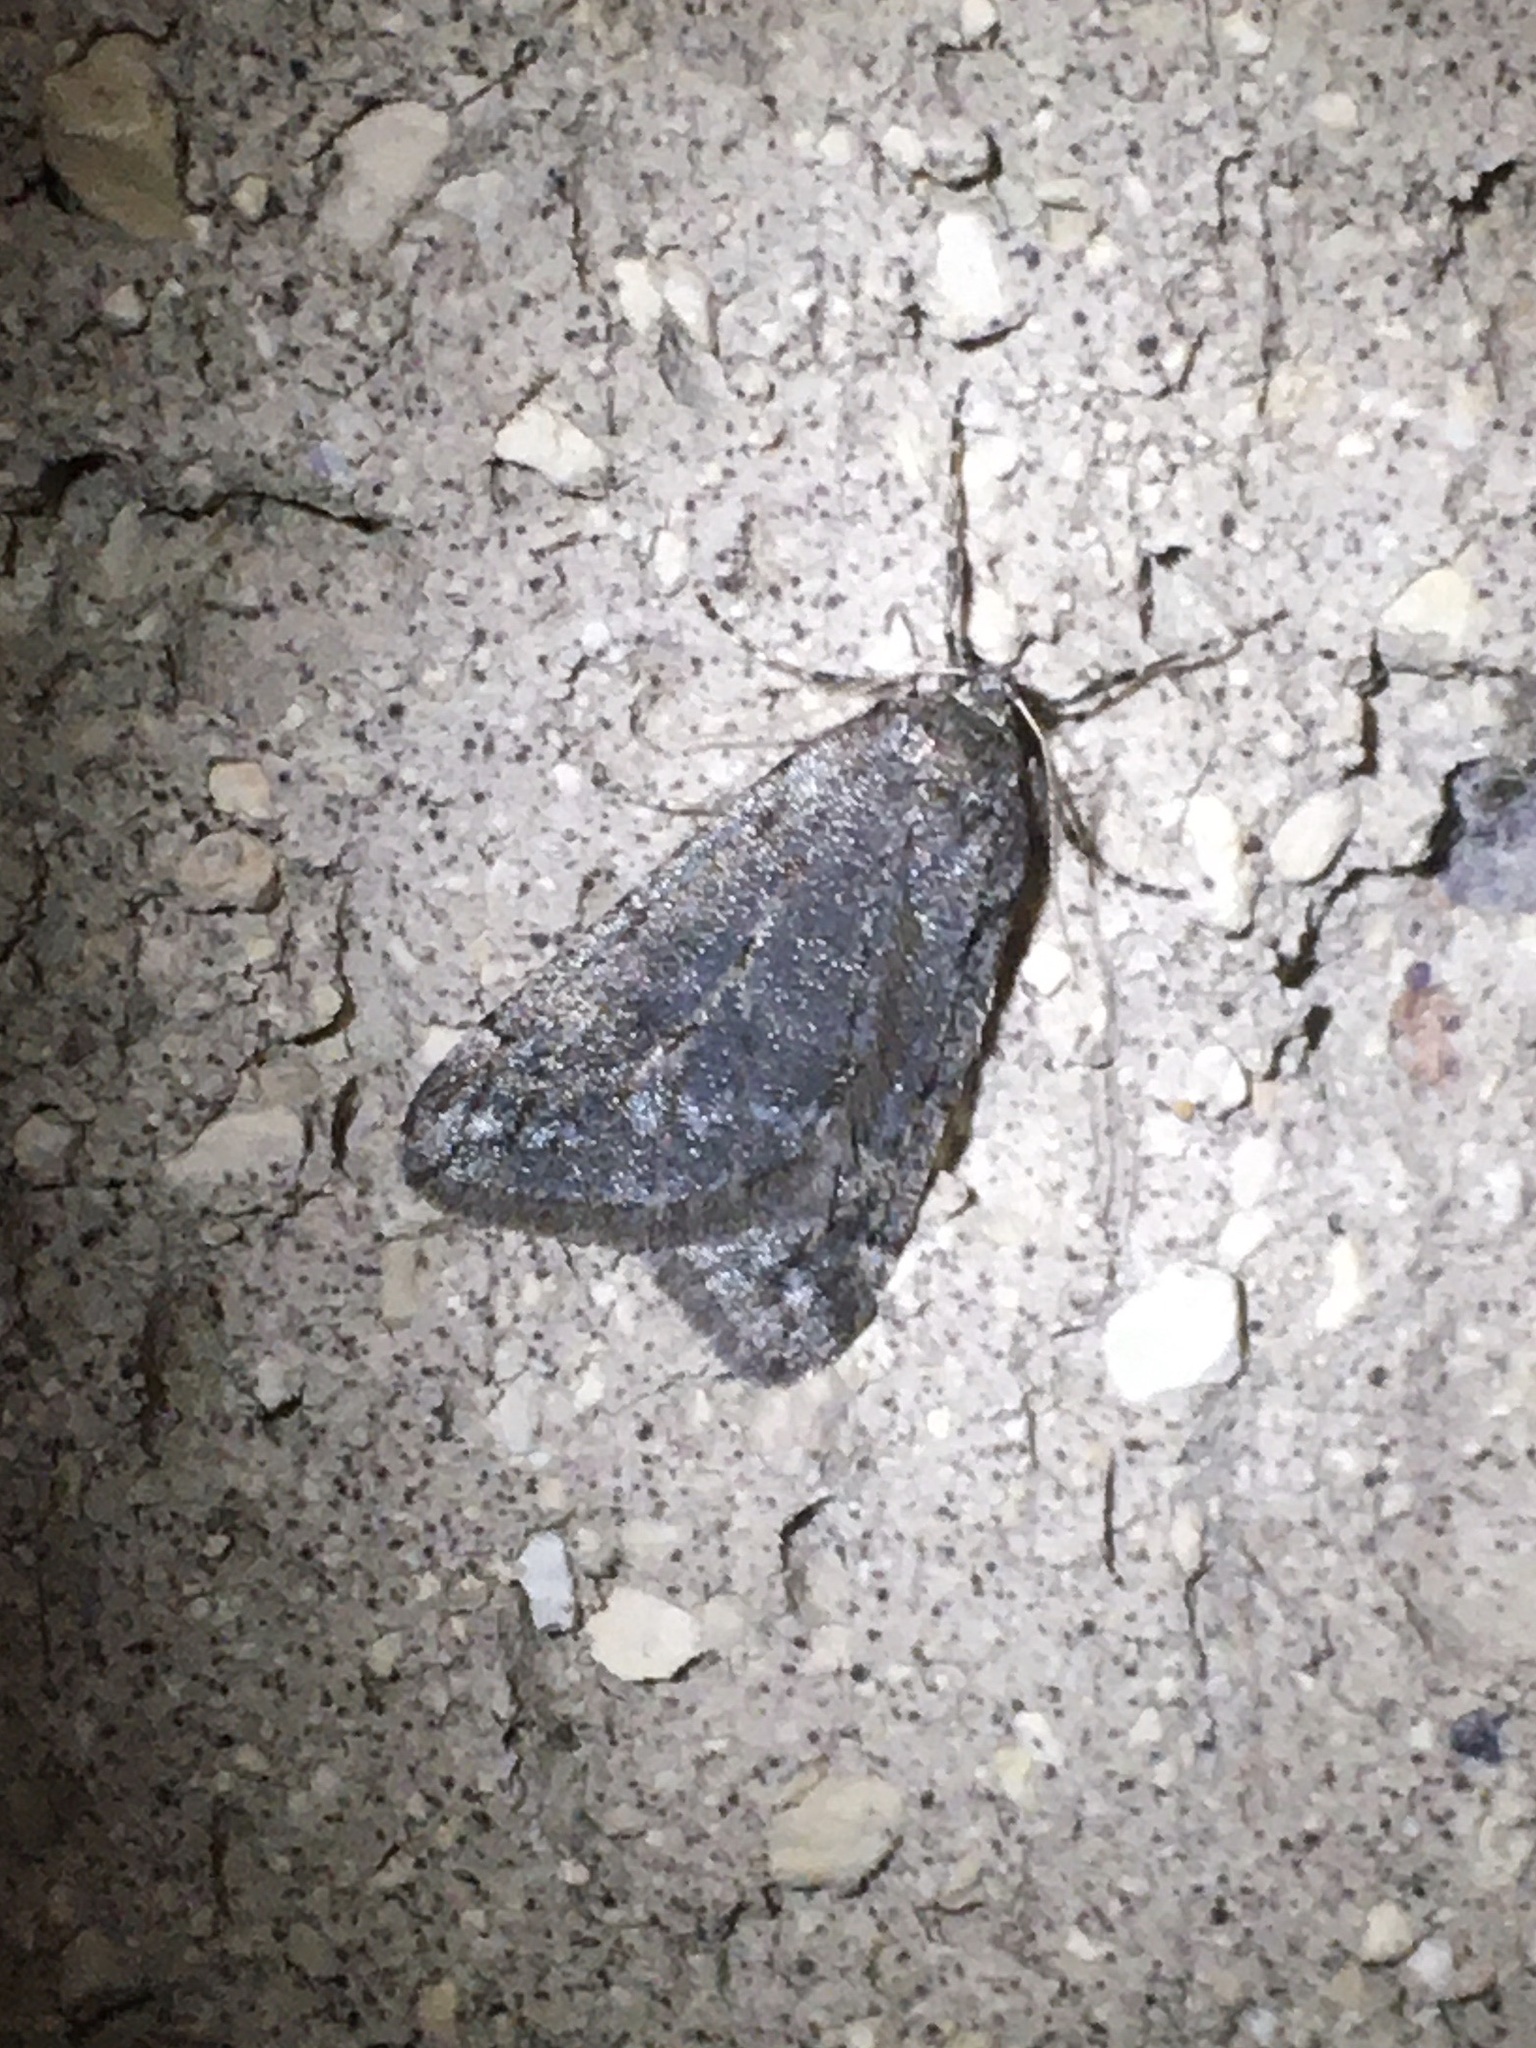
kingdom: Animalia
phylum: Arthropoda
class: Insecta
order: Lepidoptera
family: Geometridae
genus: Paleacrita
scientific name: Paleacrita vernata
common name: Spring cankerworm
